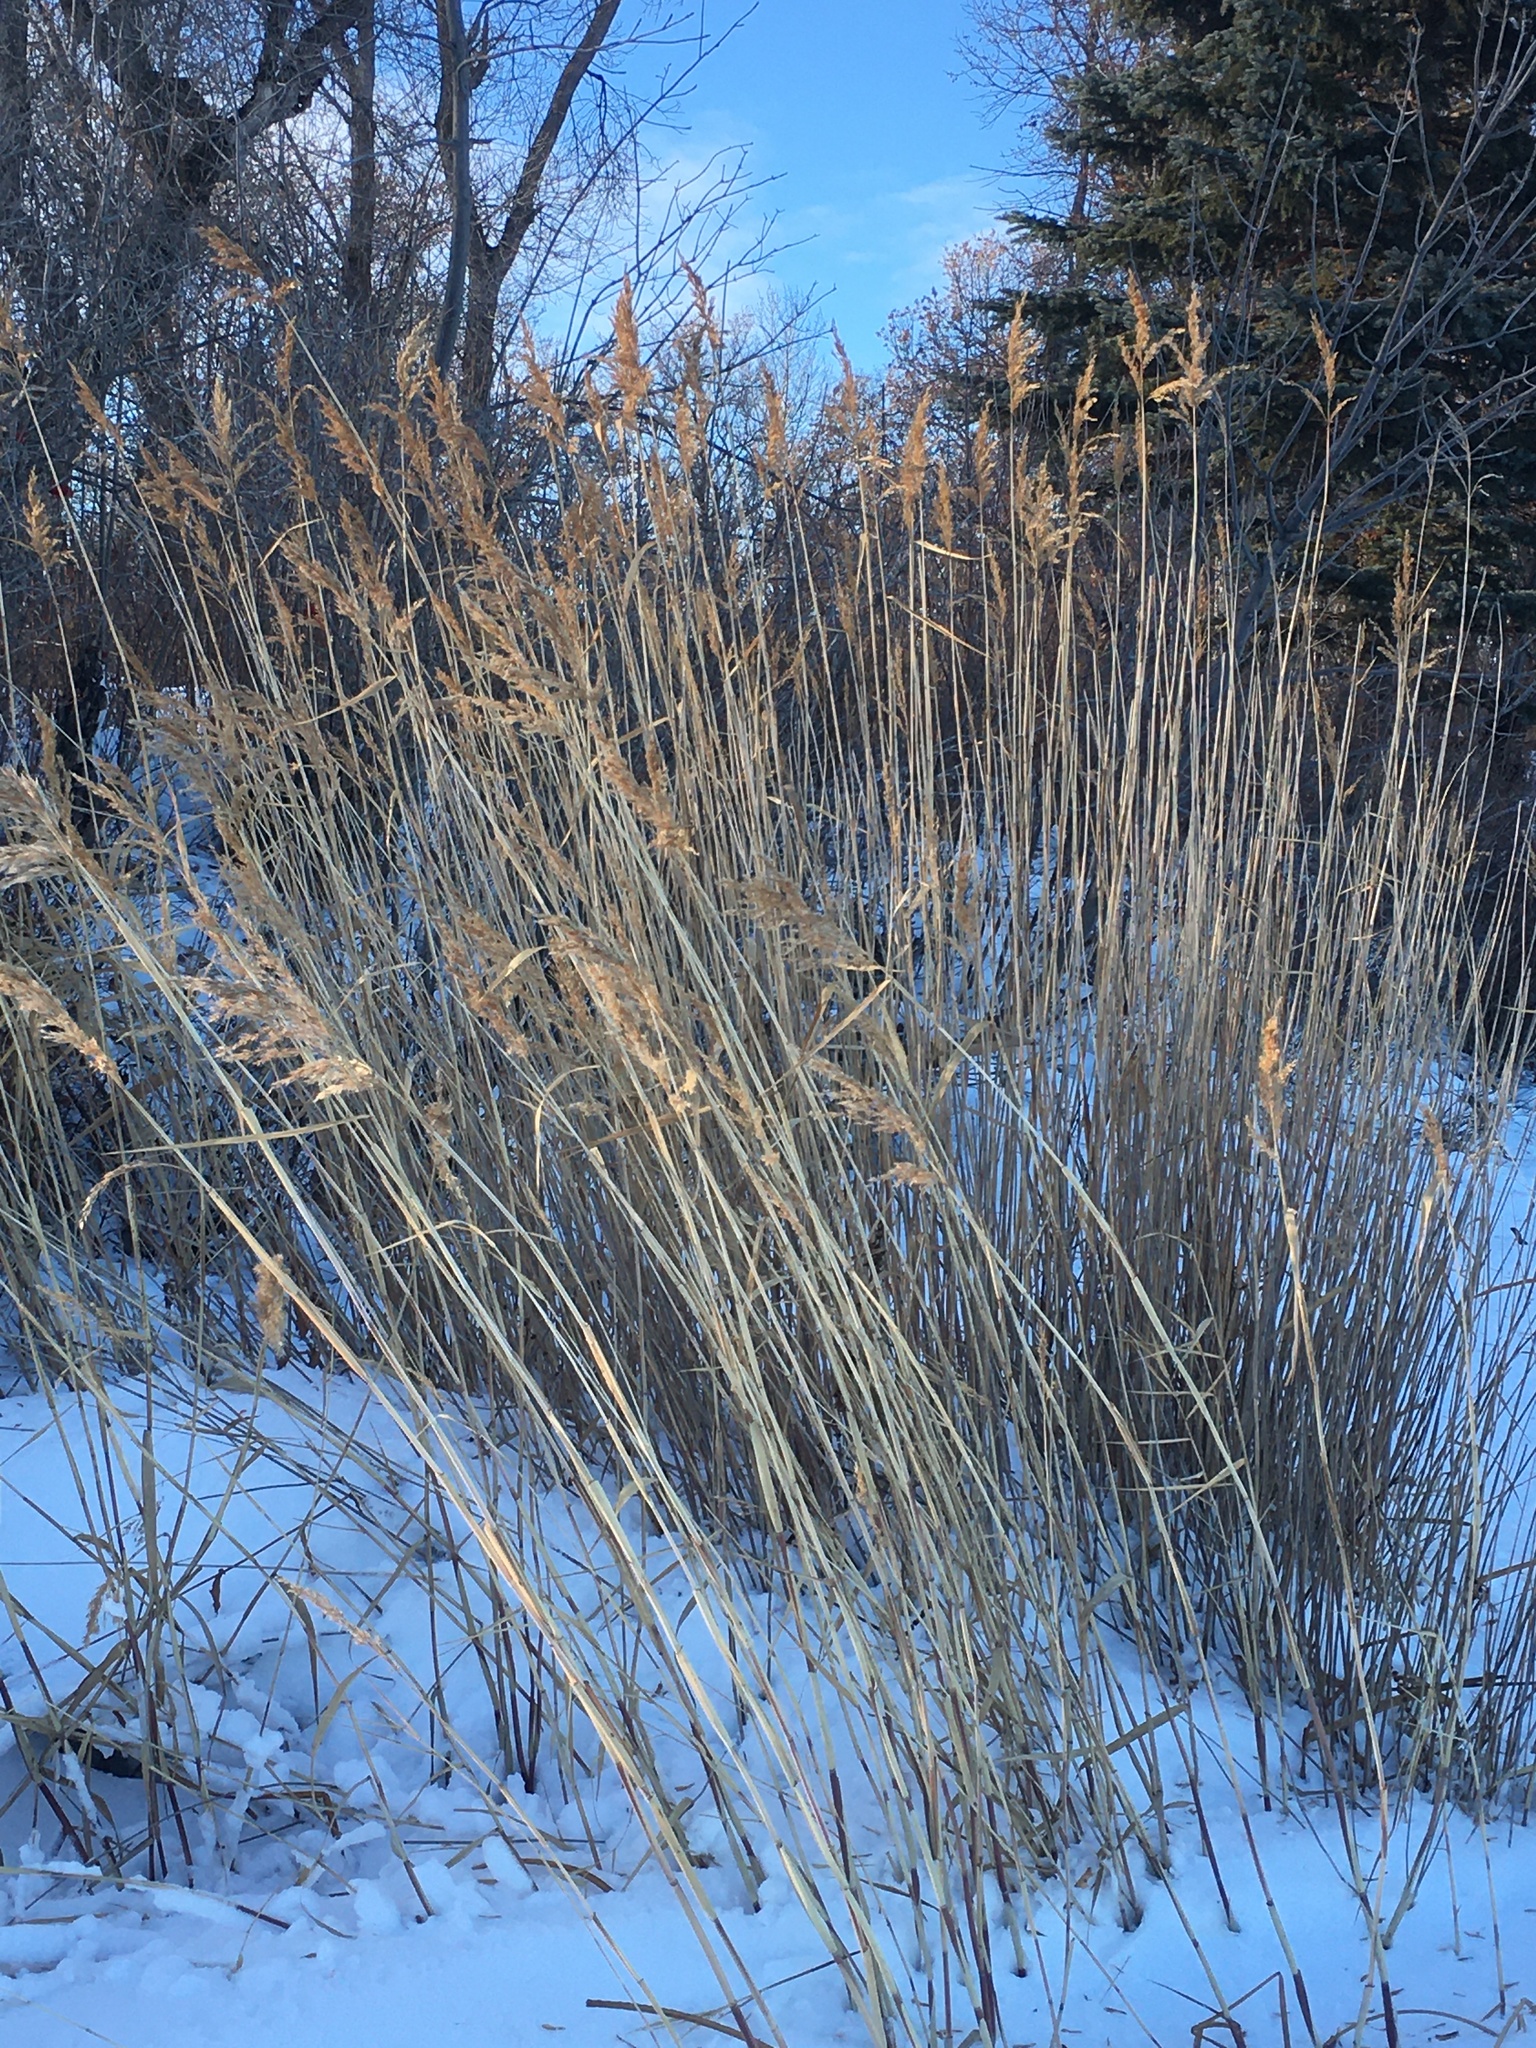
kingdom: Plantae
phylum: Tracheophyta
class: Liliopsida
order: Poales
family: Poaceae
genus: Phragmites
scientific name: Phragmites australis
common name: Common reed
